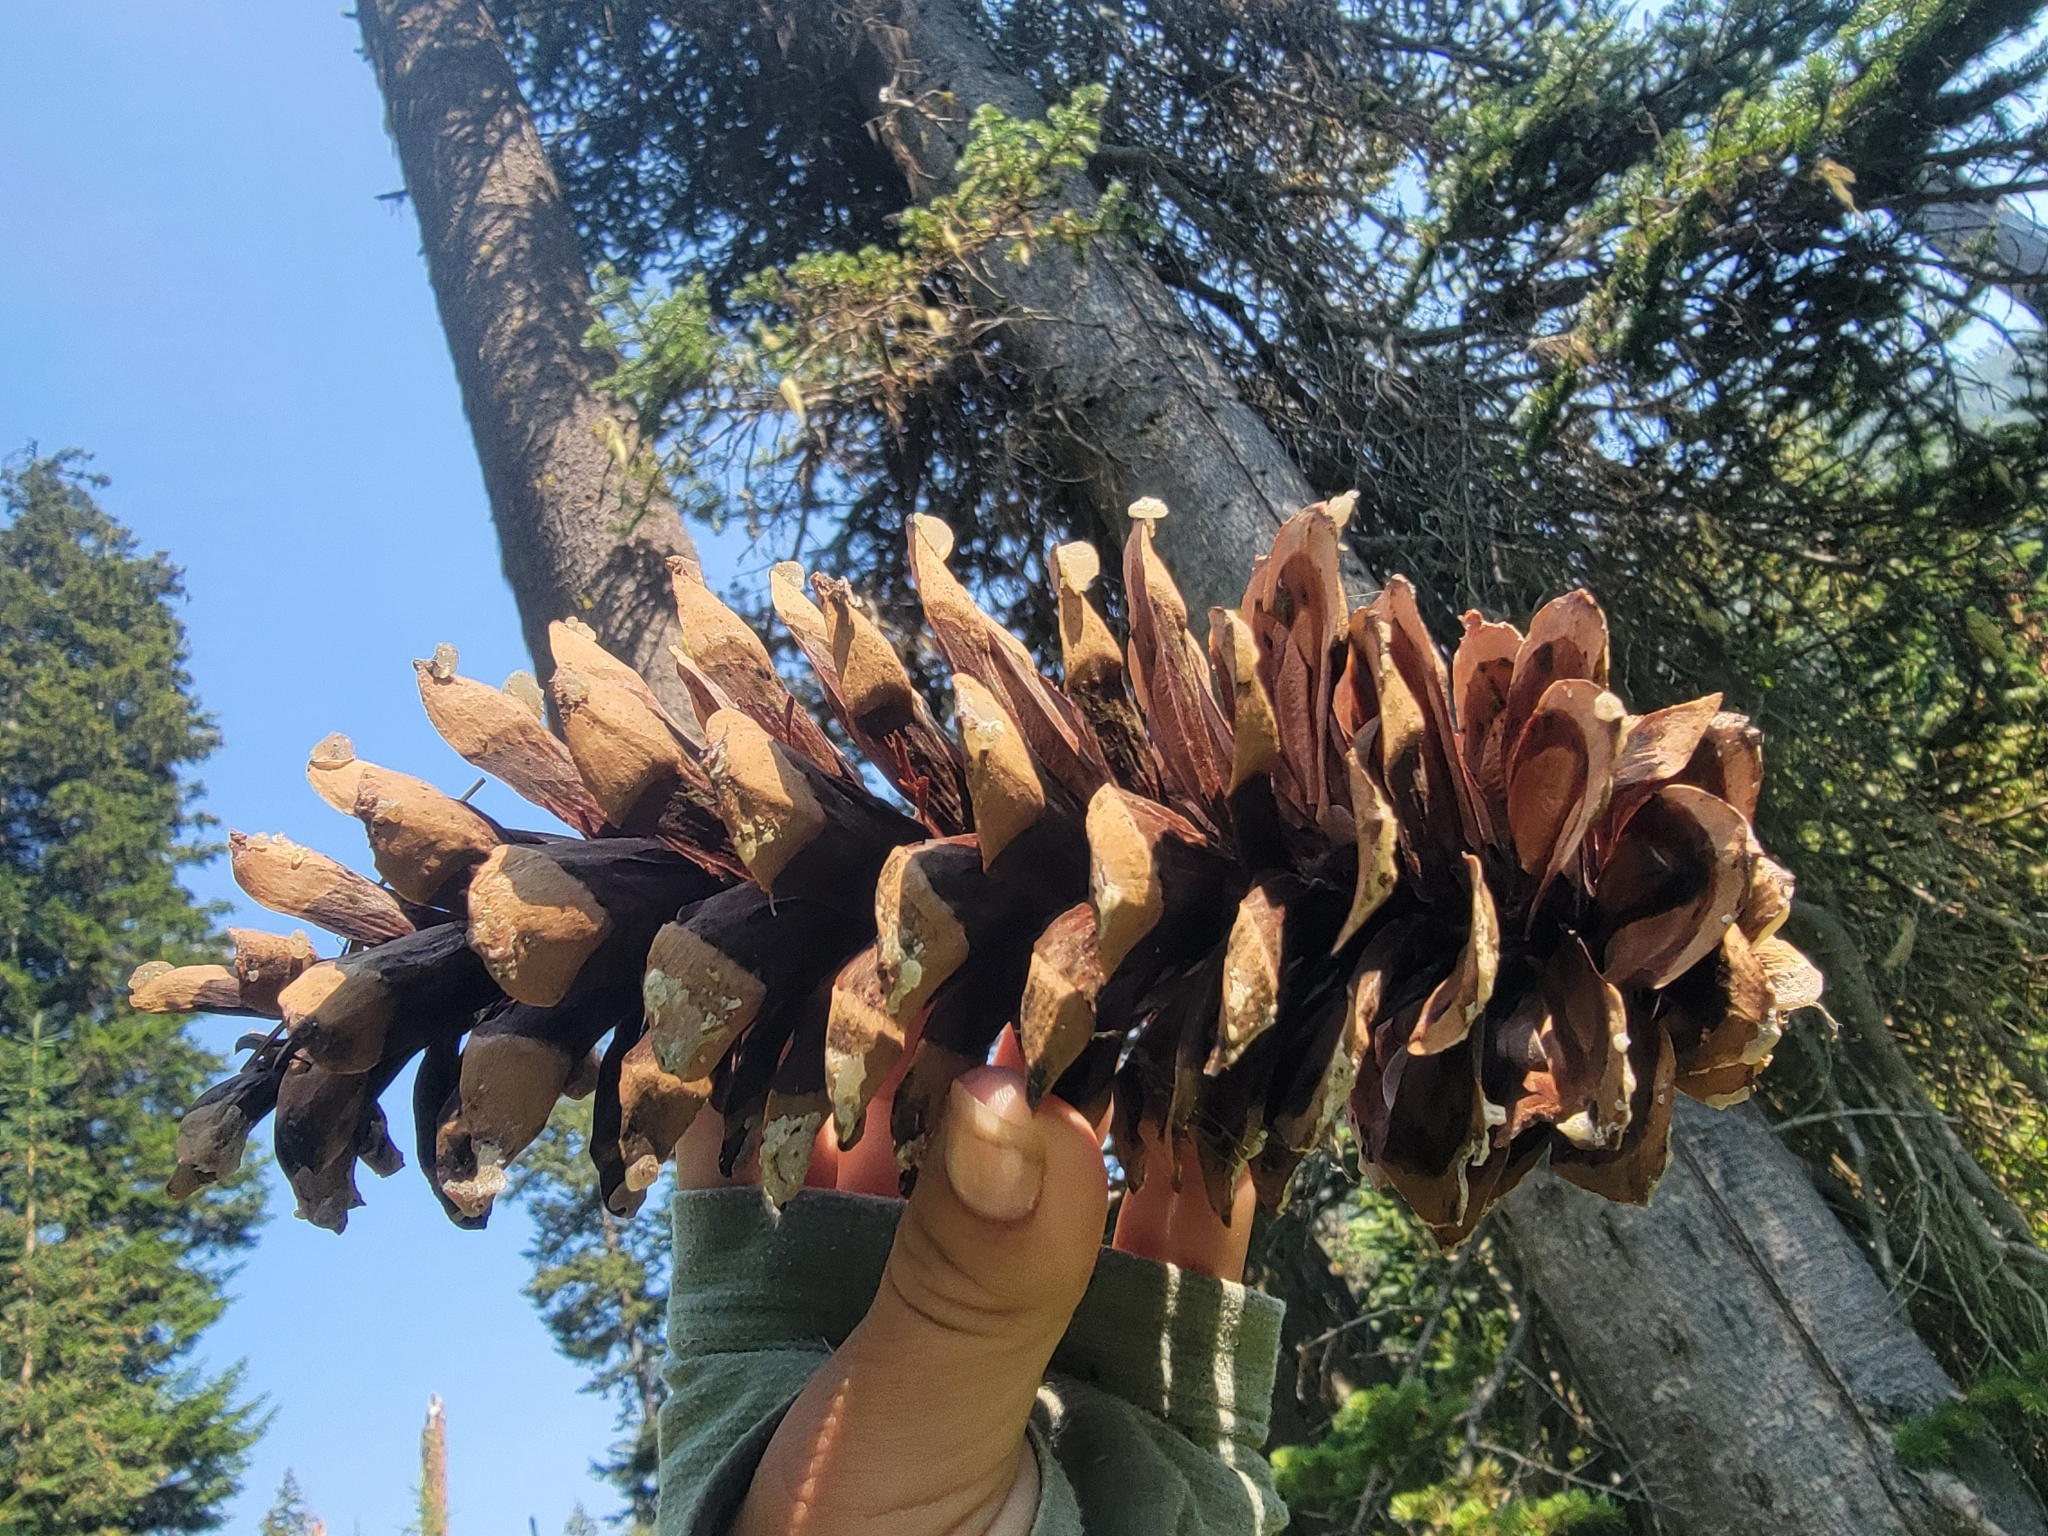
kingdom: Plantae
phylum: Tracheophyta
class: Pinopsida
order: Pinales
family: Pinaceae
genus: Pinus
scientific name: Pinus monticola
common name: Western white pine
